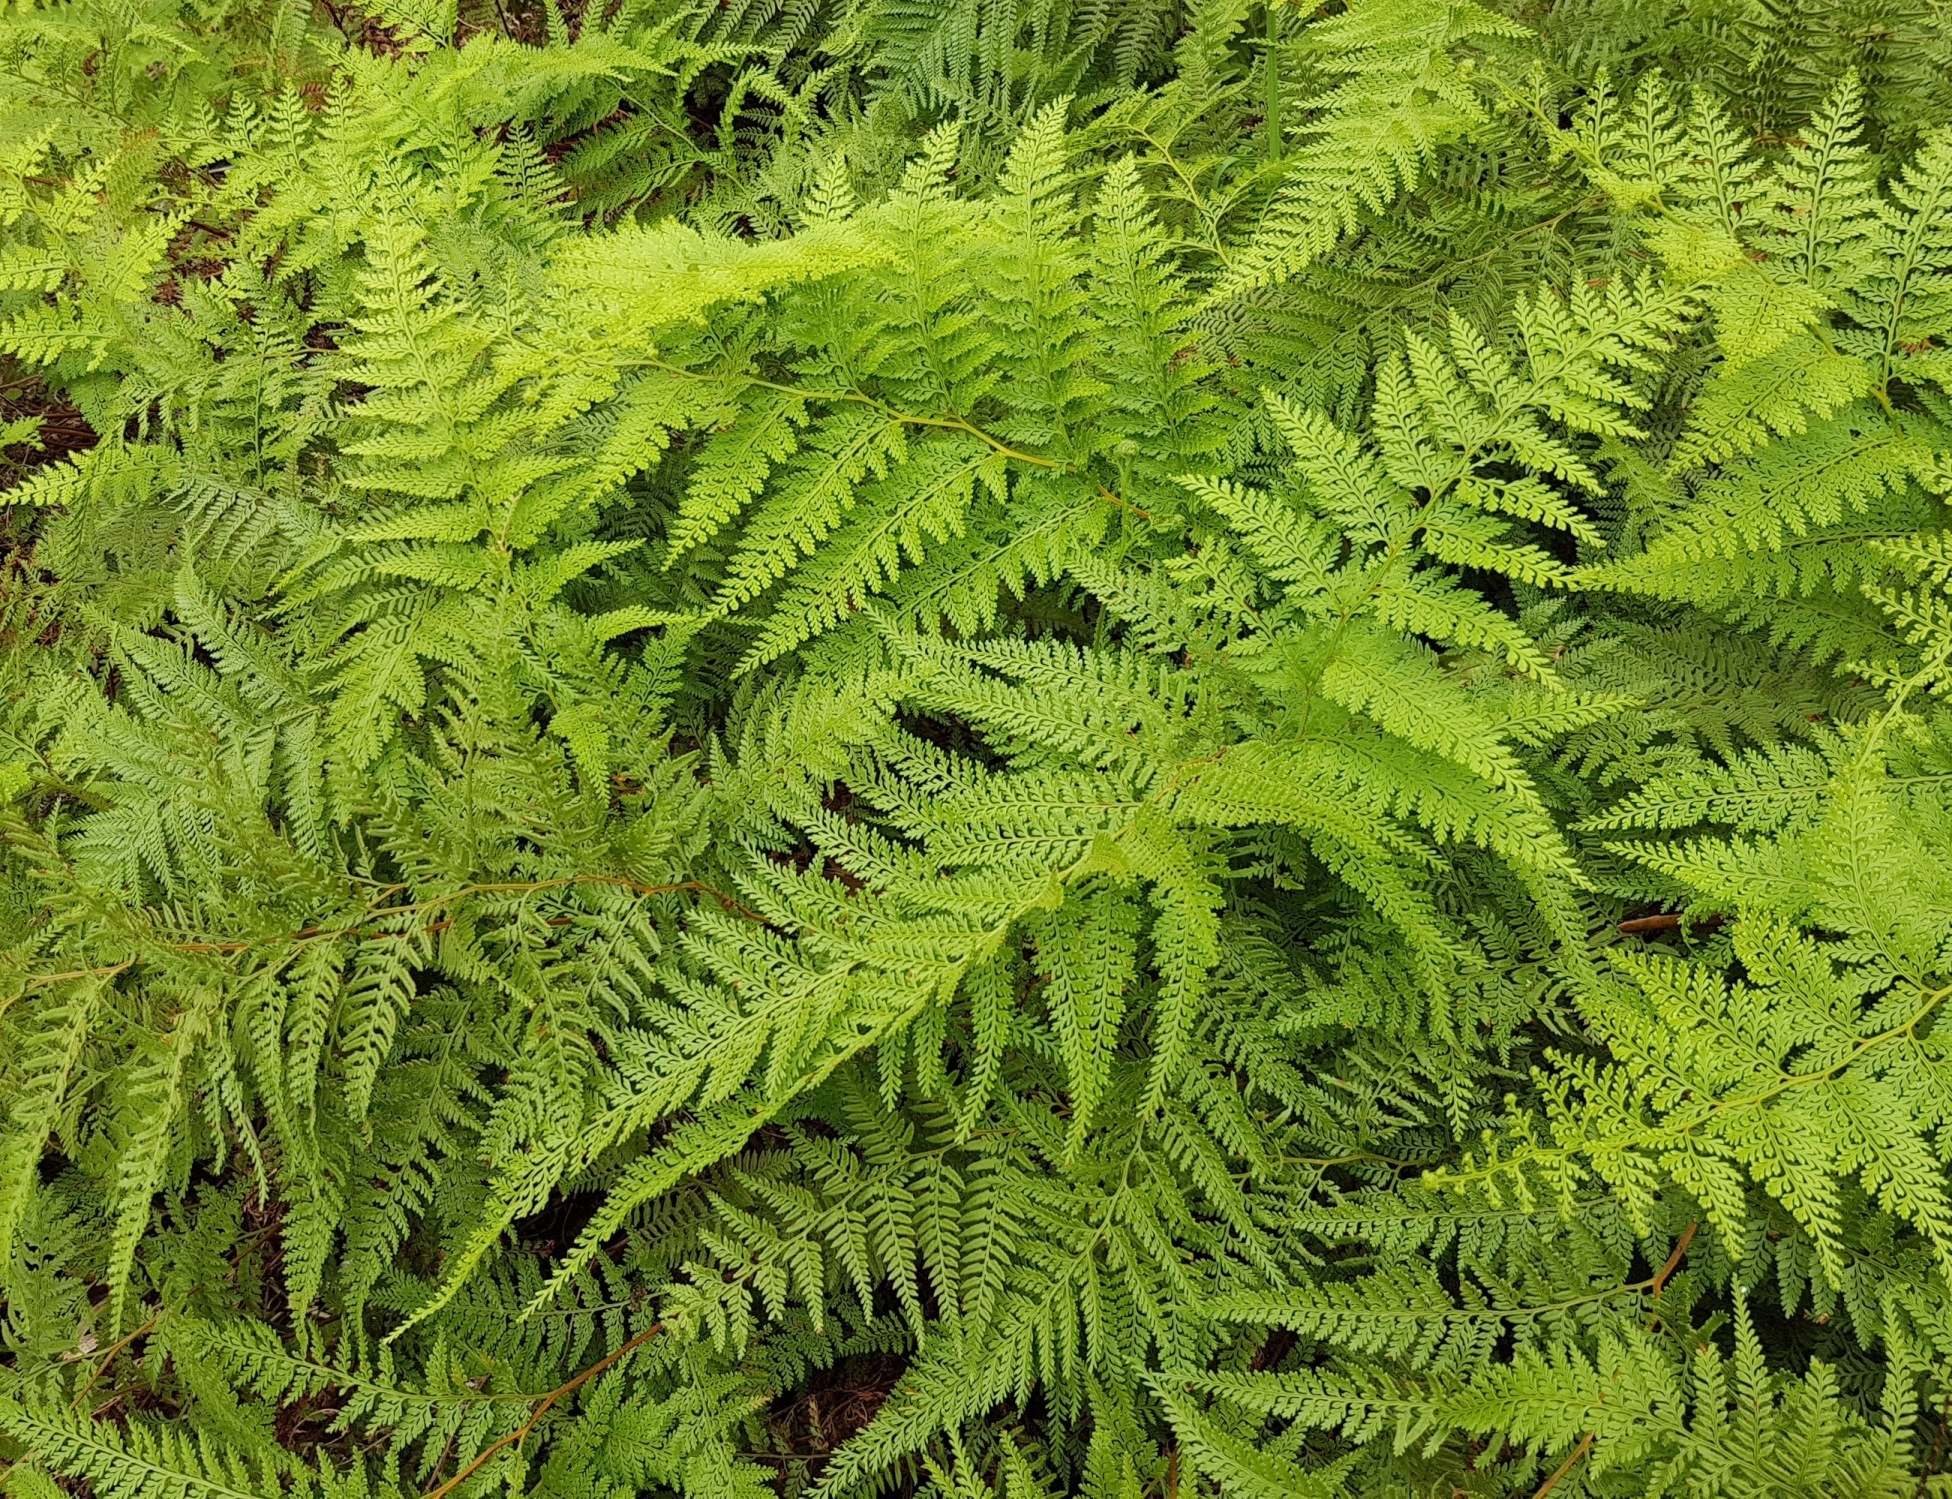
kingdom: Plantae
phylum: Tracheophyta
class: Polypodiopsida
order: Polypodiales
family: Dennstaedtiaceae
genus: Paesia
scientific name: Paesia scaberula
